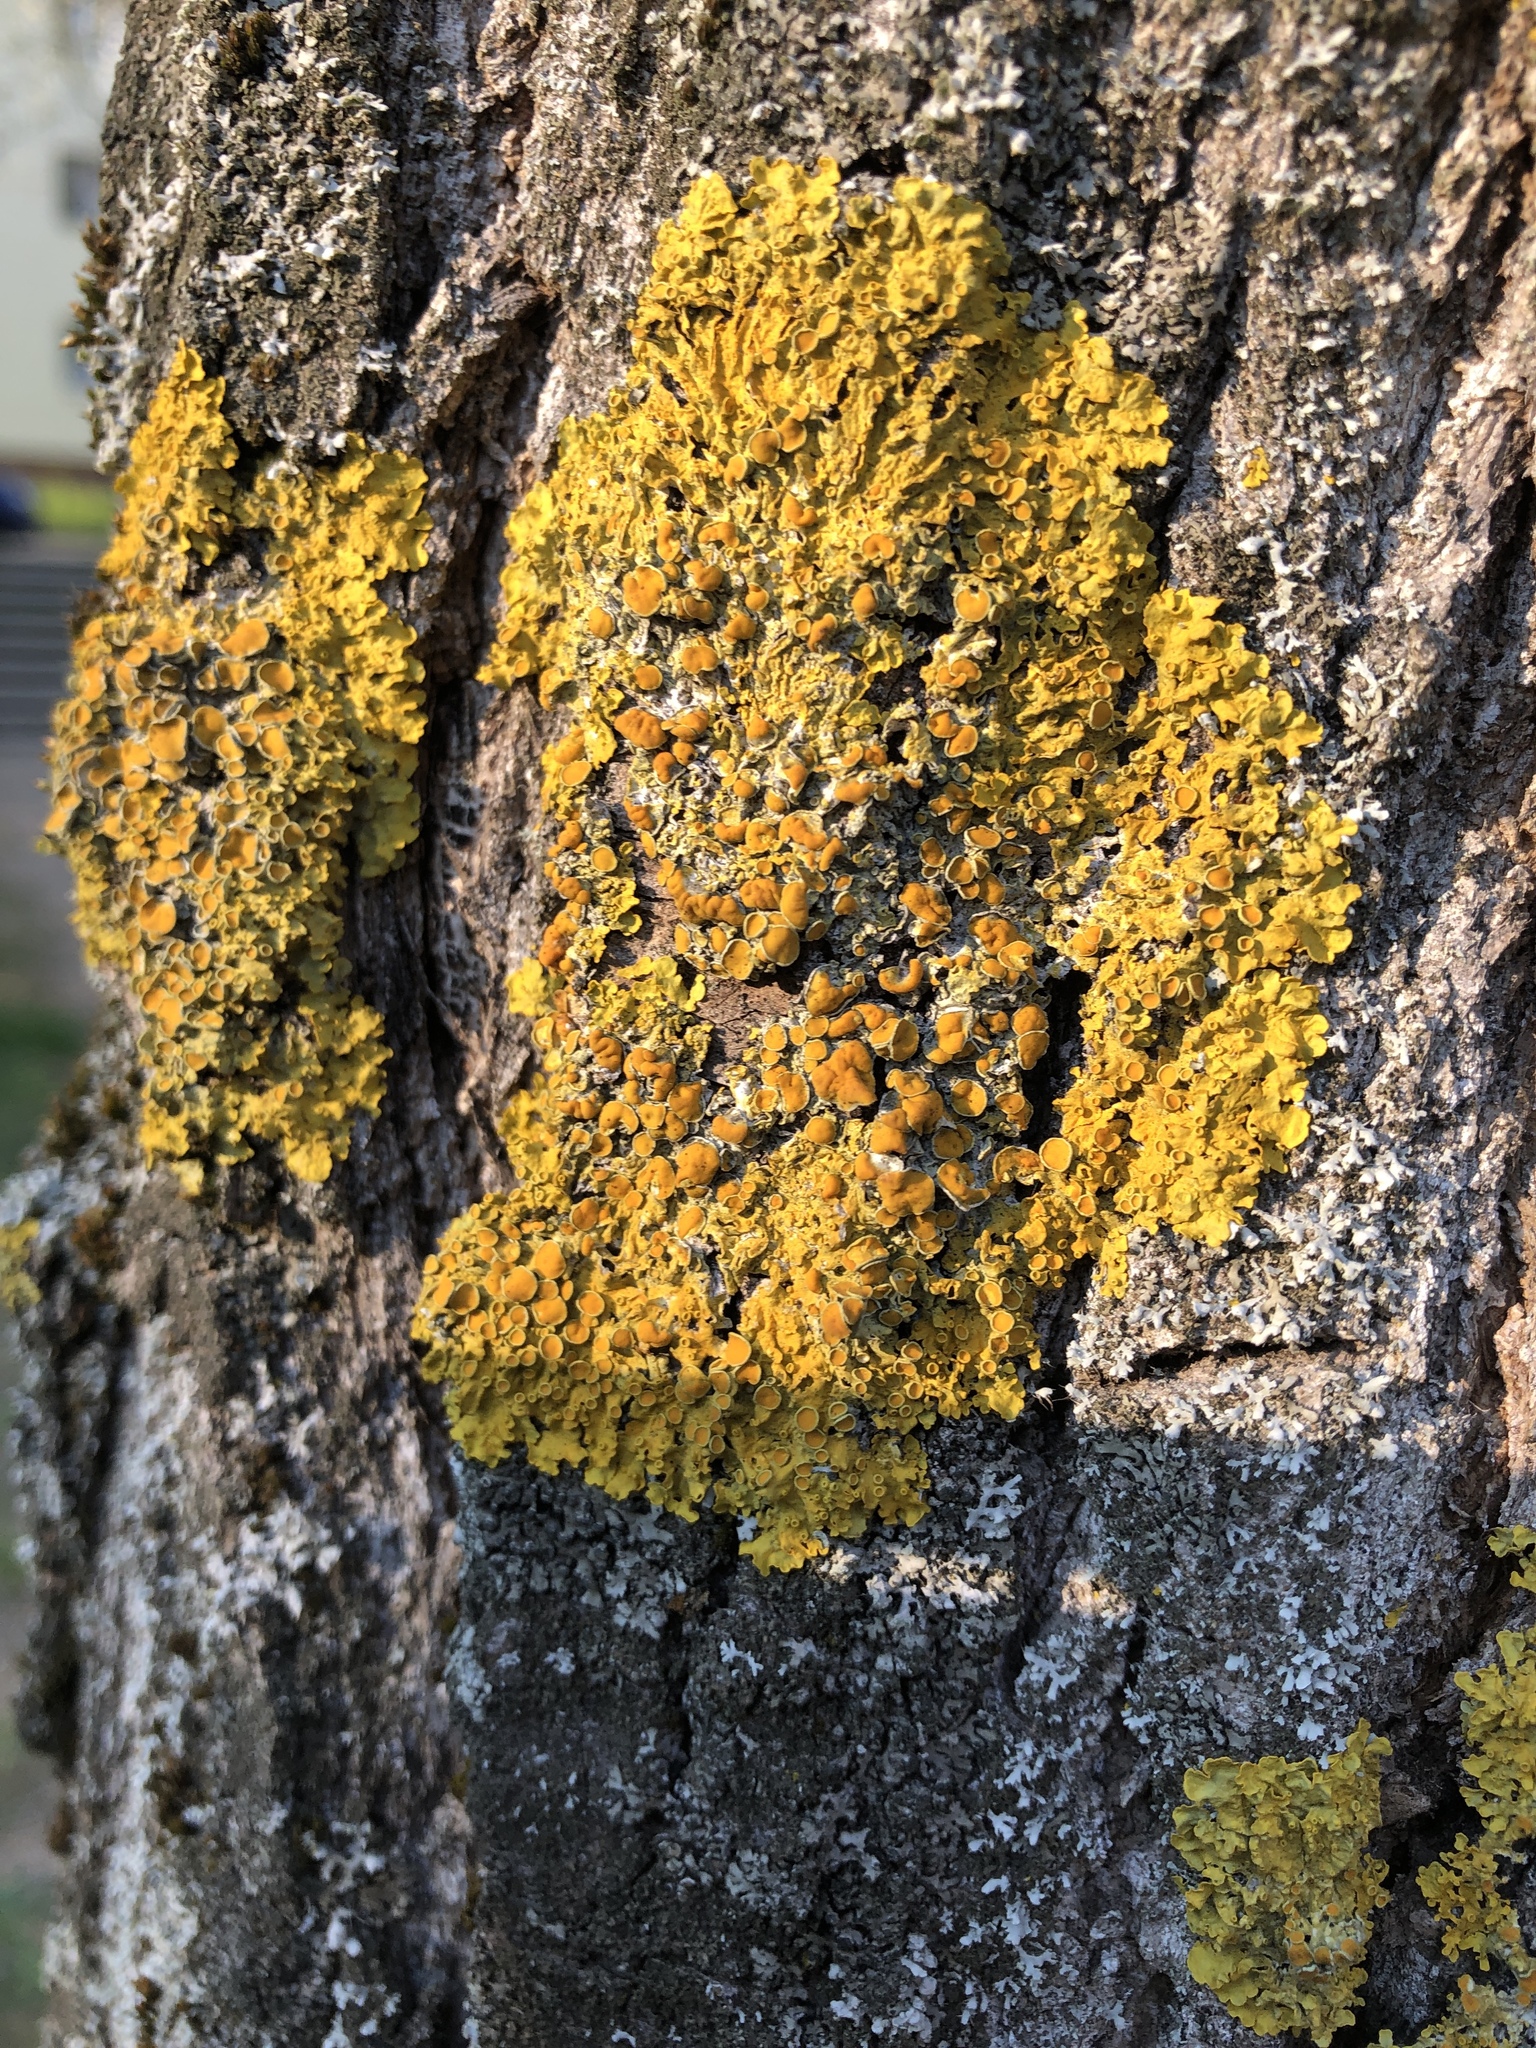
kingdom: Fungi
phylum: Ascomycota
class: Lecanoromycetes
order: Teloschistales
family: Teloschistaceae
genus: Xanthoria
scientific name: Xanthoria parietina
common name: Common orange lichen
